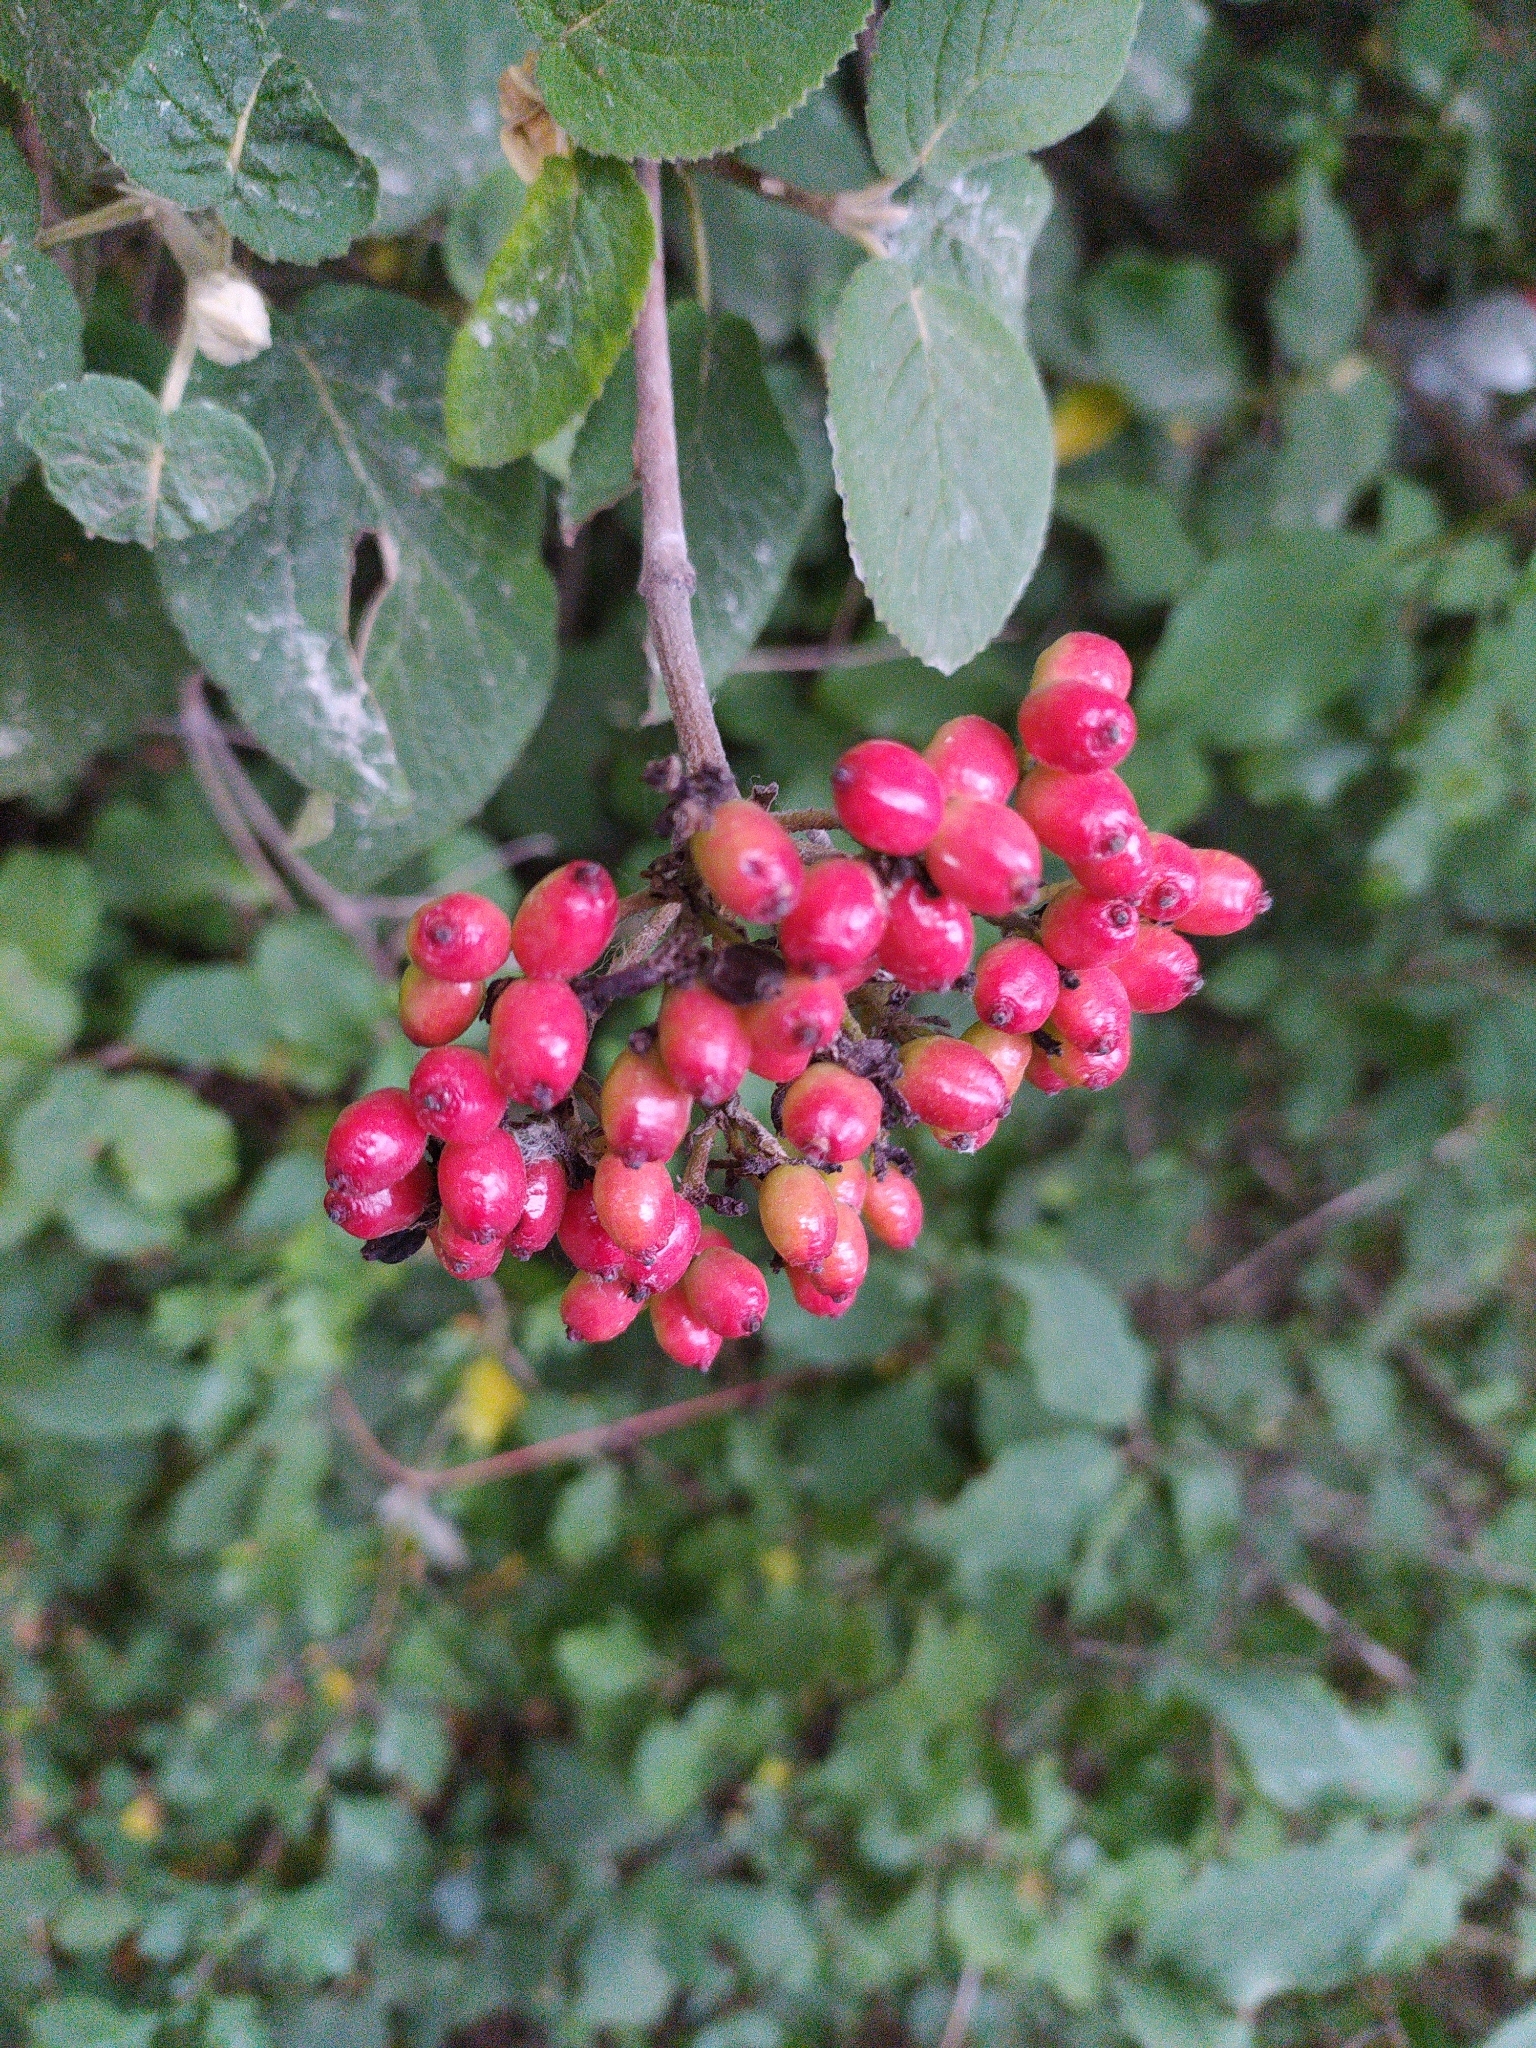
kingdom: Plantae
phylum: Tracheophyta
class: Magnoliopsida
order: Dipsacales
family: Viburnaceae
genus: Viburnum
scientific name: Viburnum lantana
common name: Wayfaring tree
